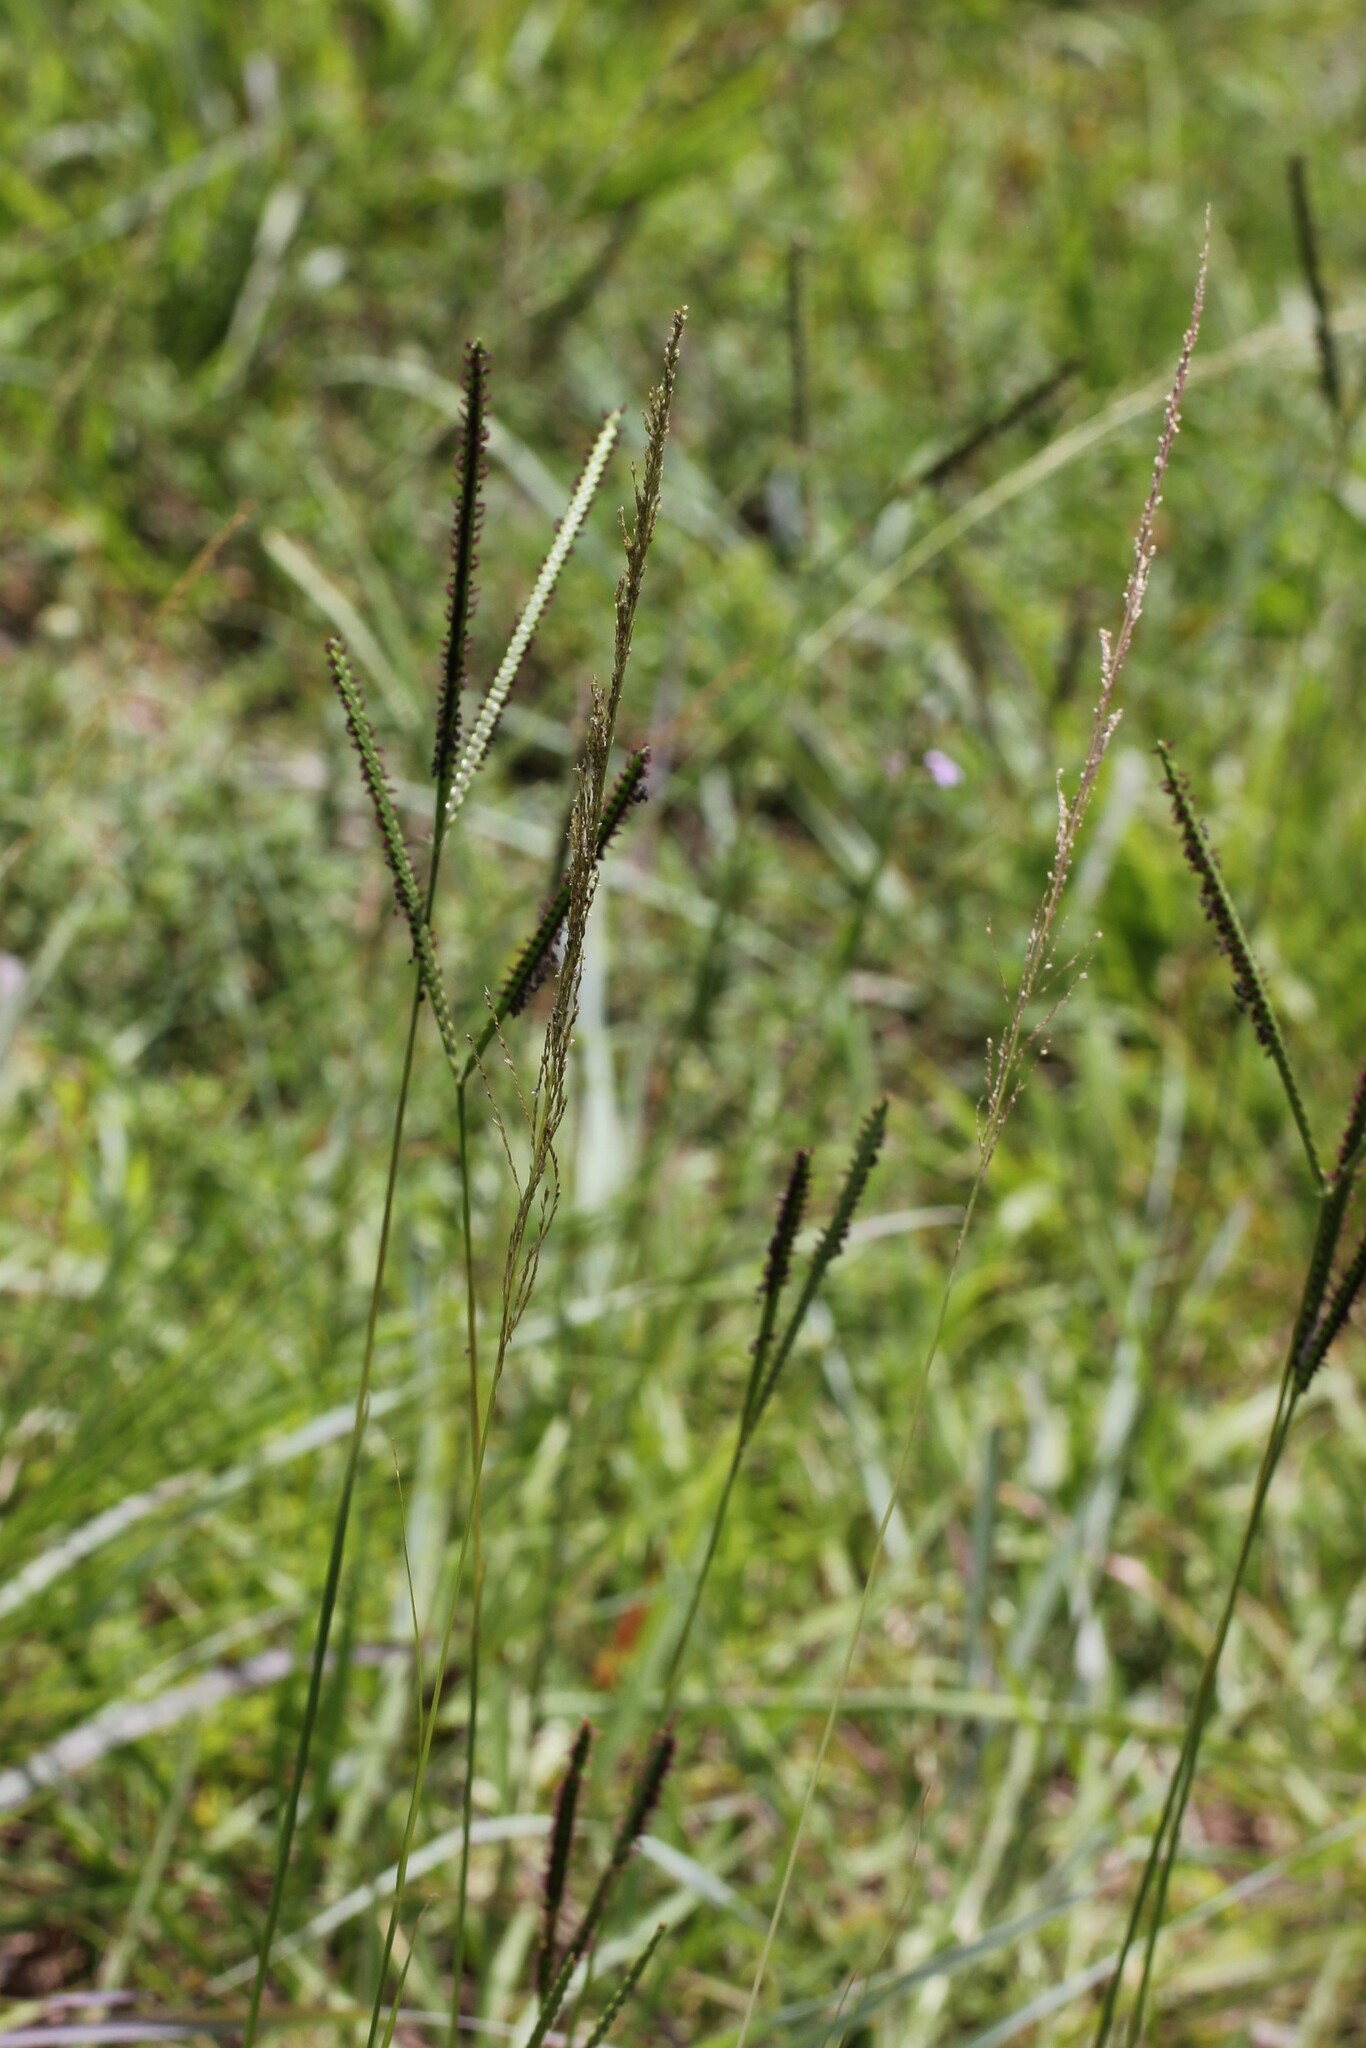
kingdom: Plantae
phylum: Tracheophyta
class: Liliopsida
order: Poales
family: Poaceae
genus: Paspalum
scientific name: Paspalum notatum
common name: Bahiagrass
